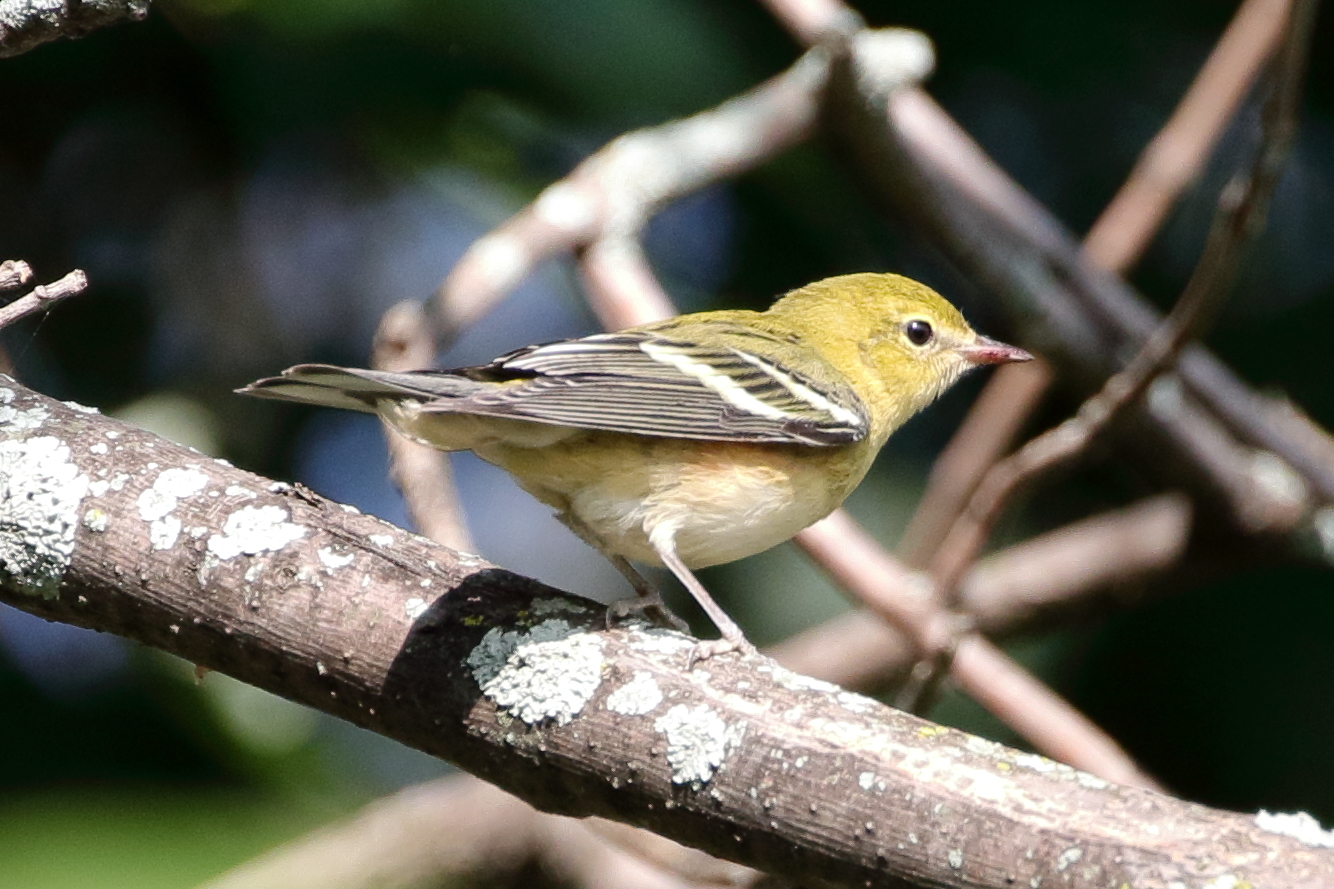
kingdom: Animalia
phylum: Chordata
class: Aves
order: Passeriformes
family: Parulidae
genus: Setophaga
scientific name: Setophaga castanea
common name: Bay-breasted warbler
